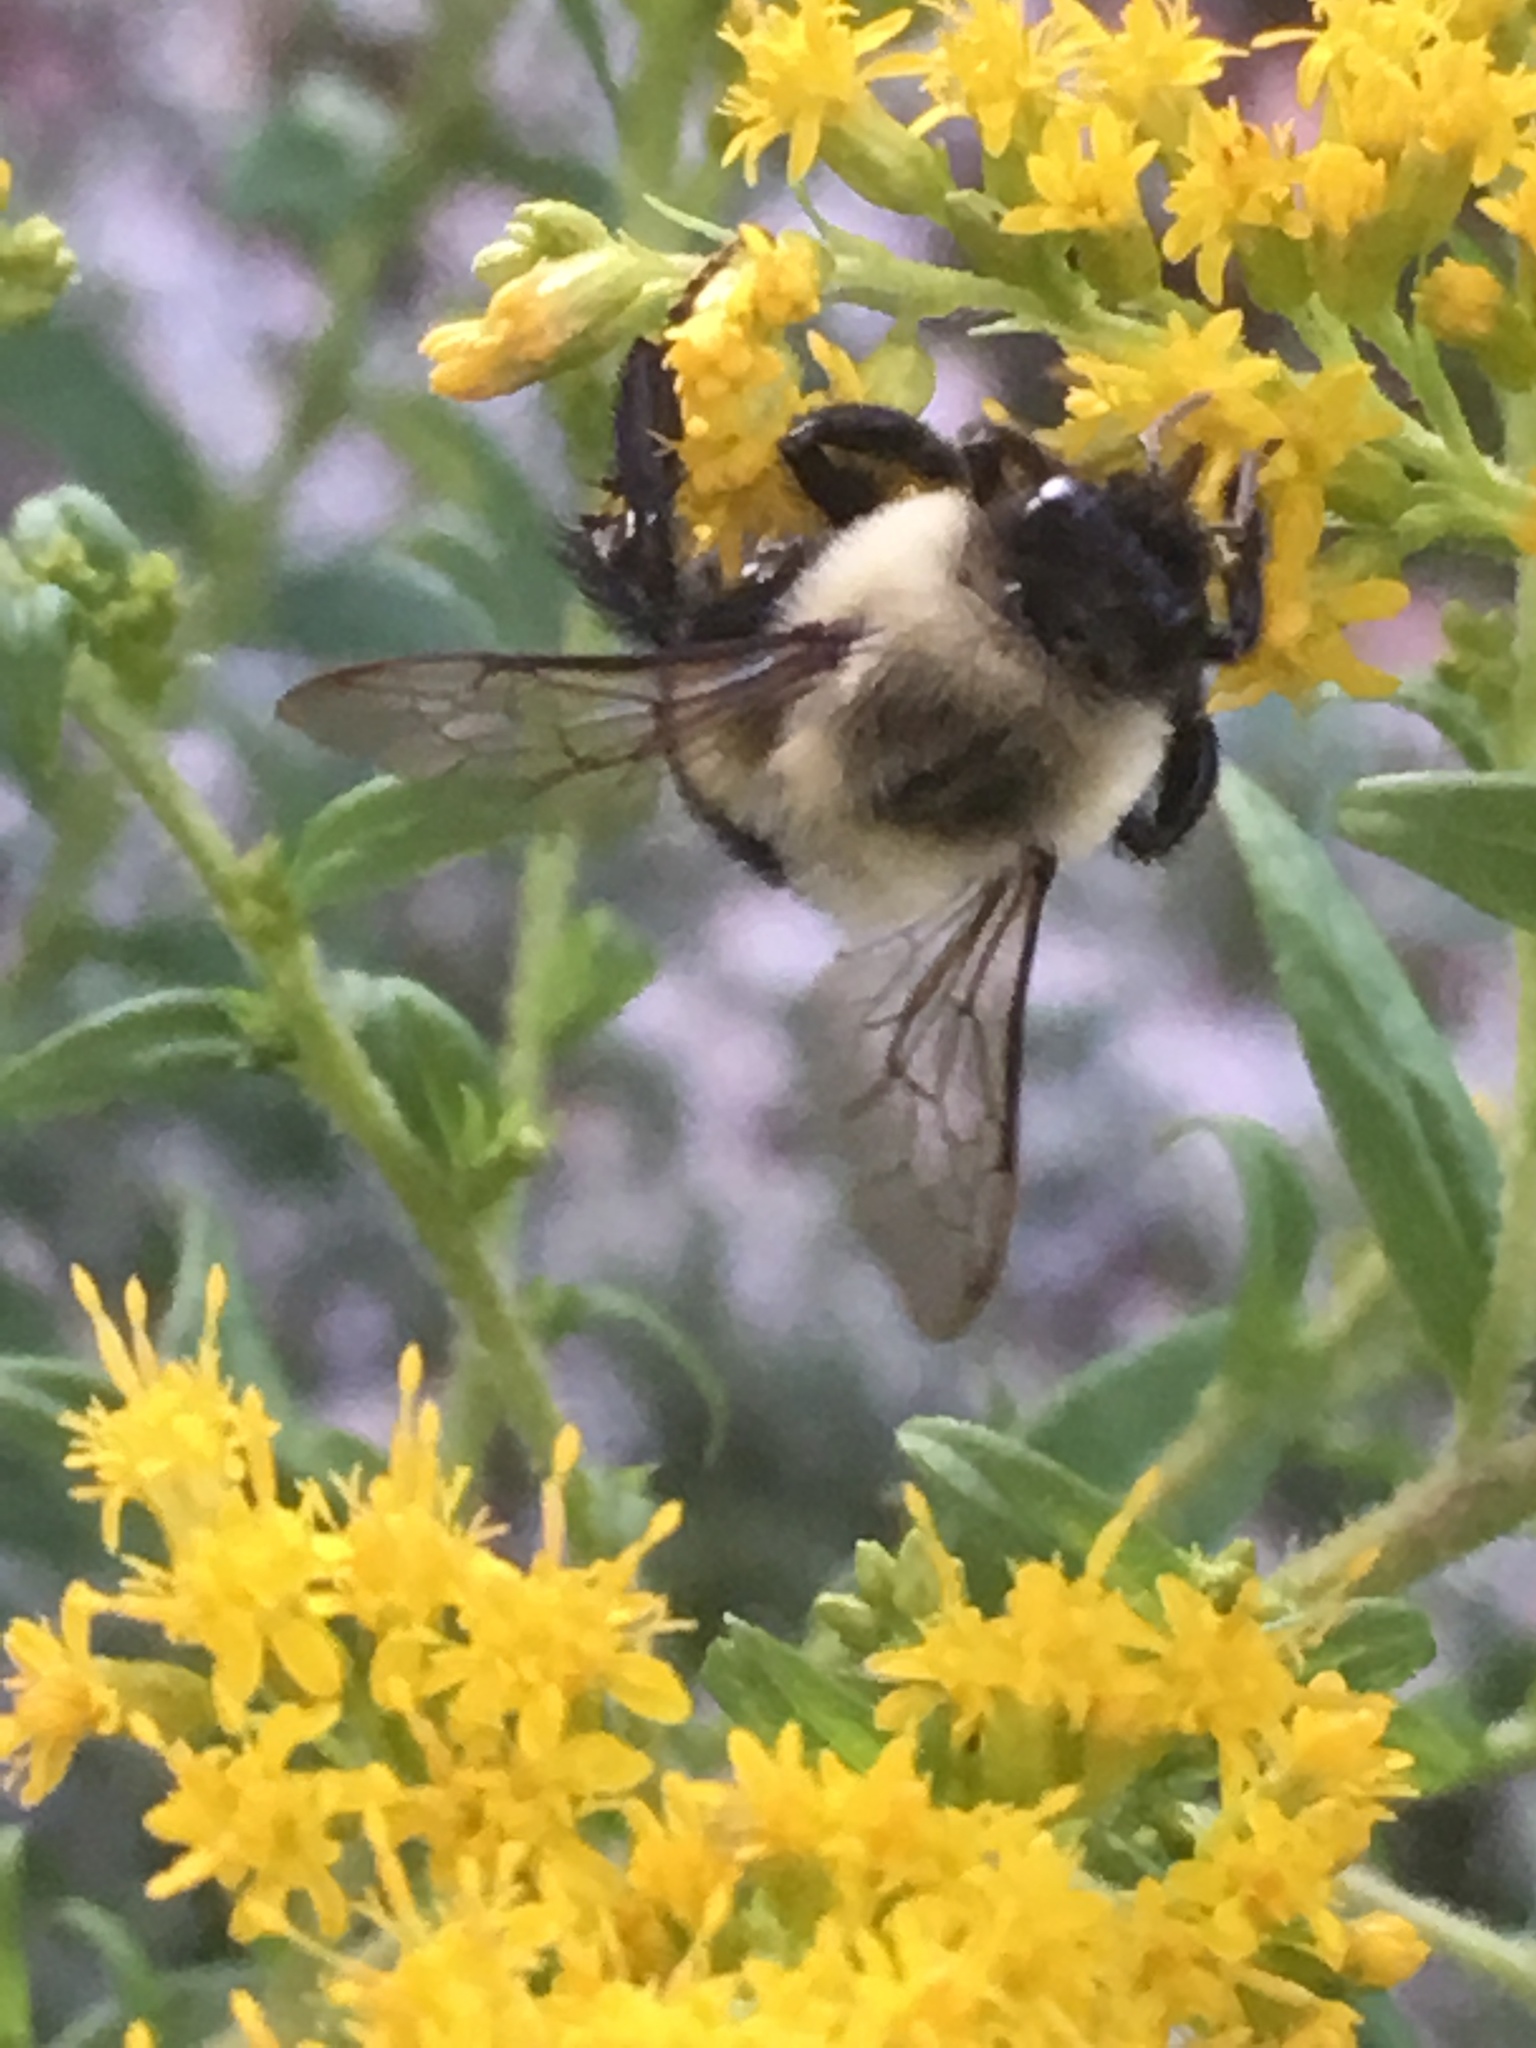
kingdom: Animalia
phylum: Arthropoda
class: Insecta
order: Hymenoptera
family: Apidae
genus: Bombus
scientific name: Bombus impatiens
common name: Common eastern bumble bee
